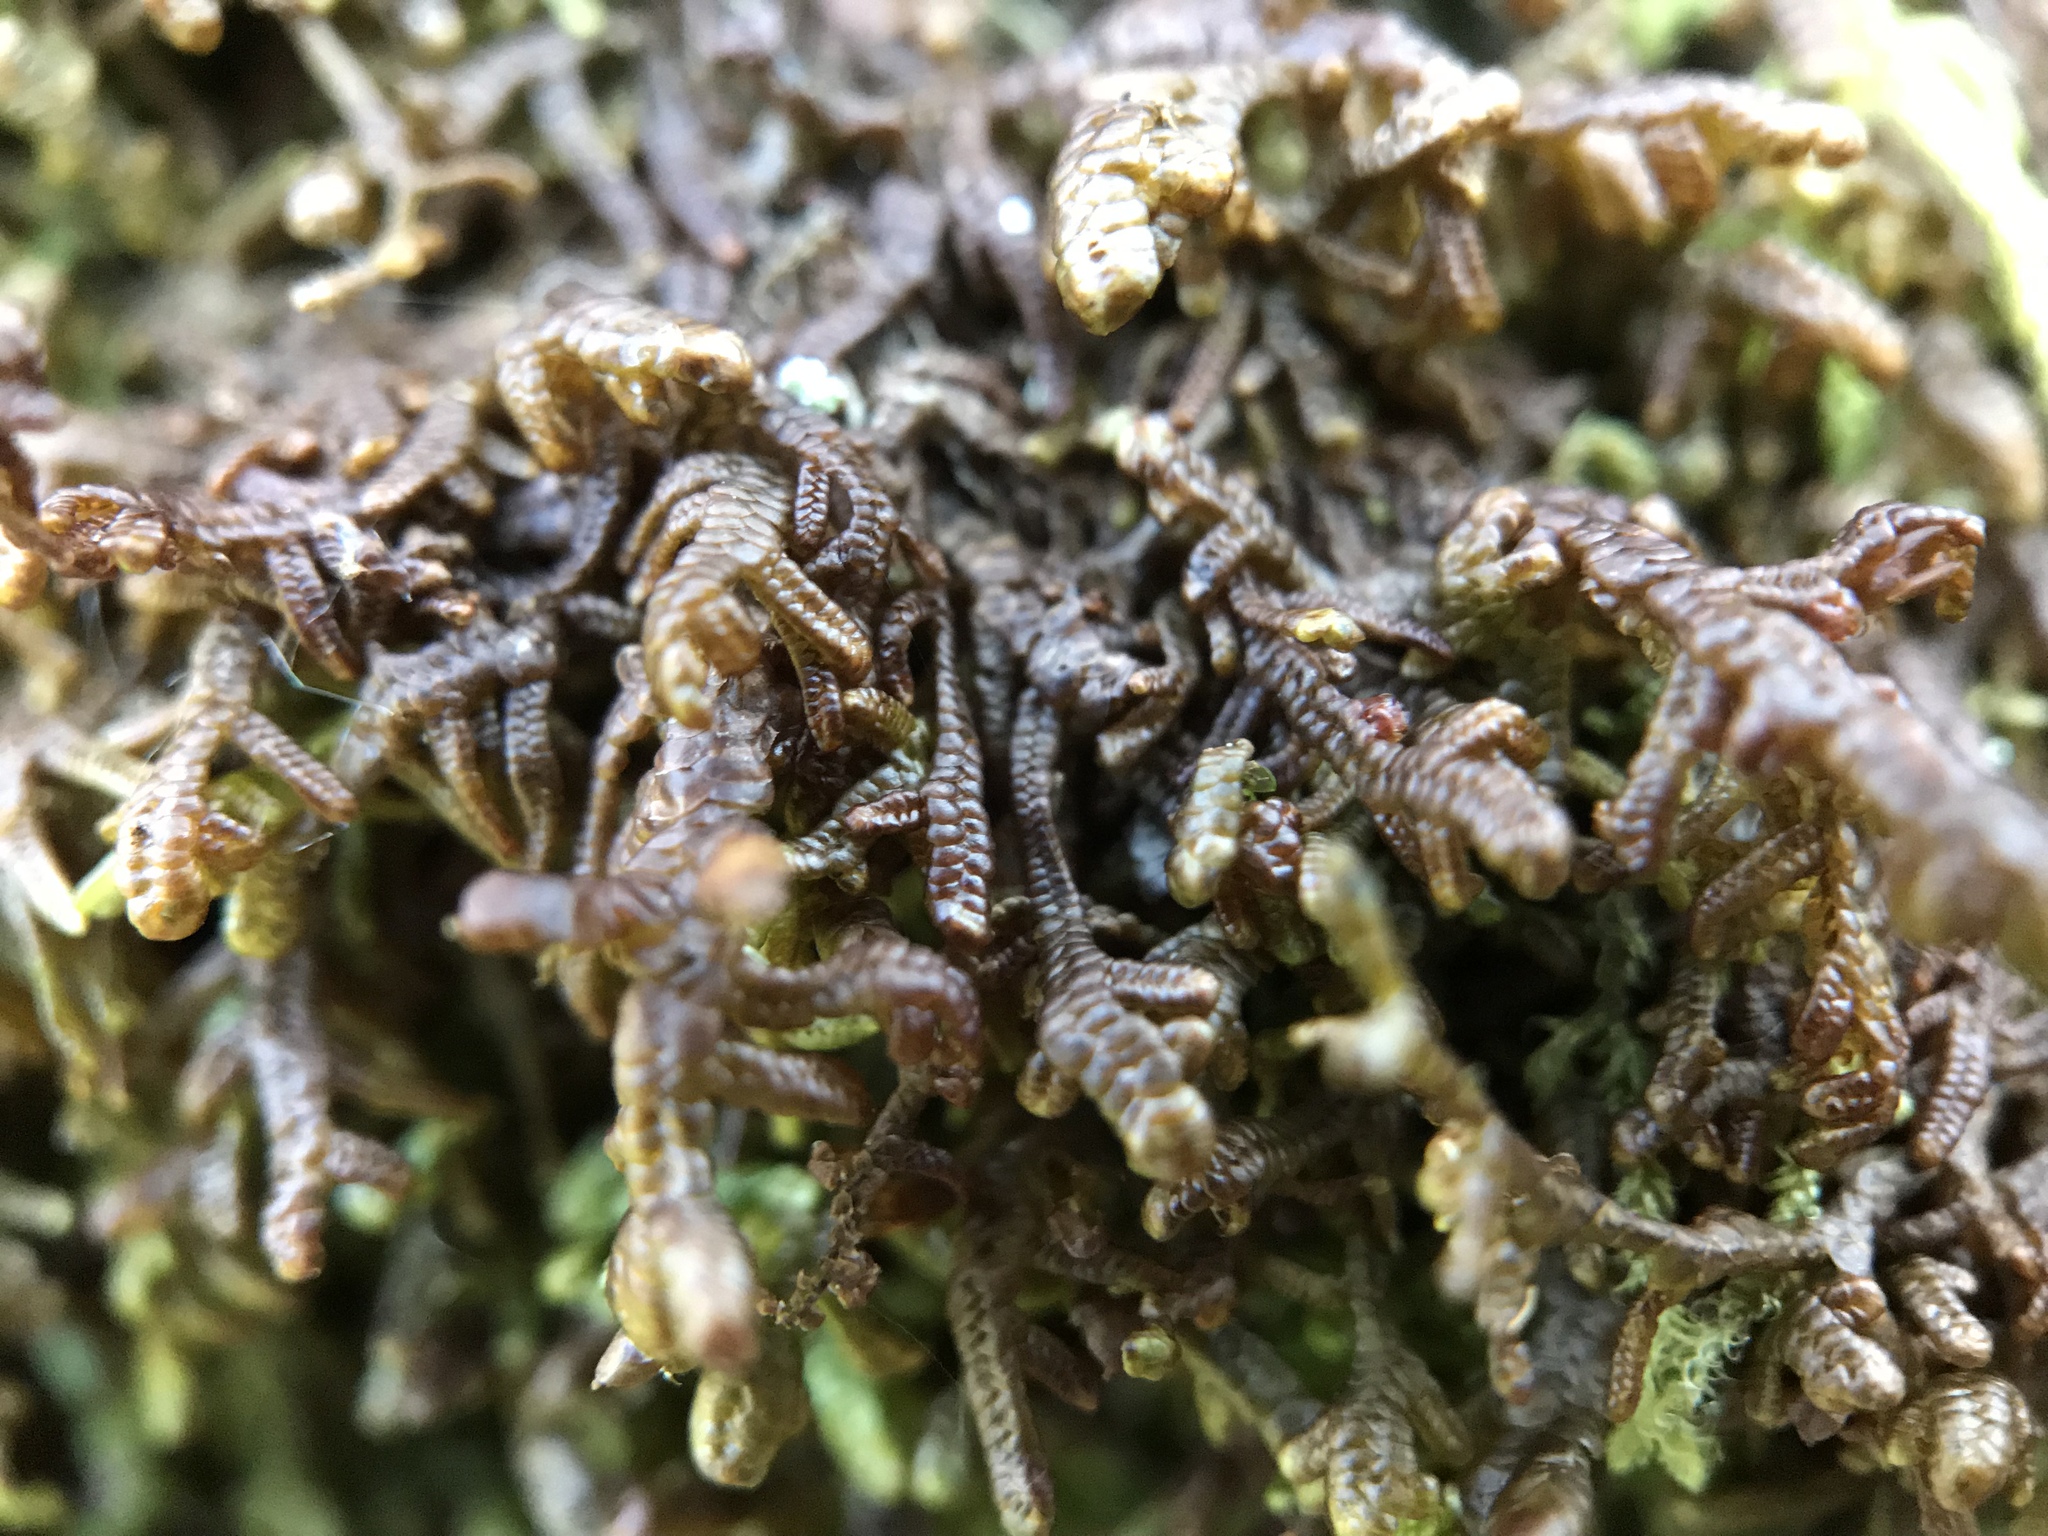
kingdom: Plantae
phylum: Marchantiophyta
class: Jungermanniopsida
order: Porellales
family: Frullaniaceae
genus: Frullania
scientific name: Frullania tamarisci
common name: Tamarisk scalewort
